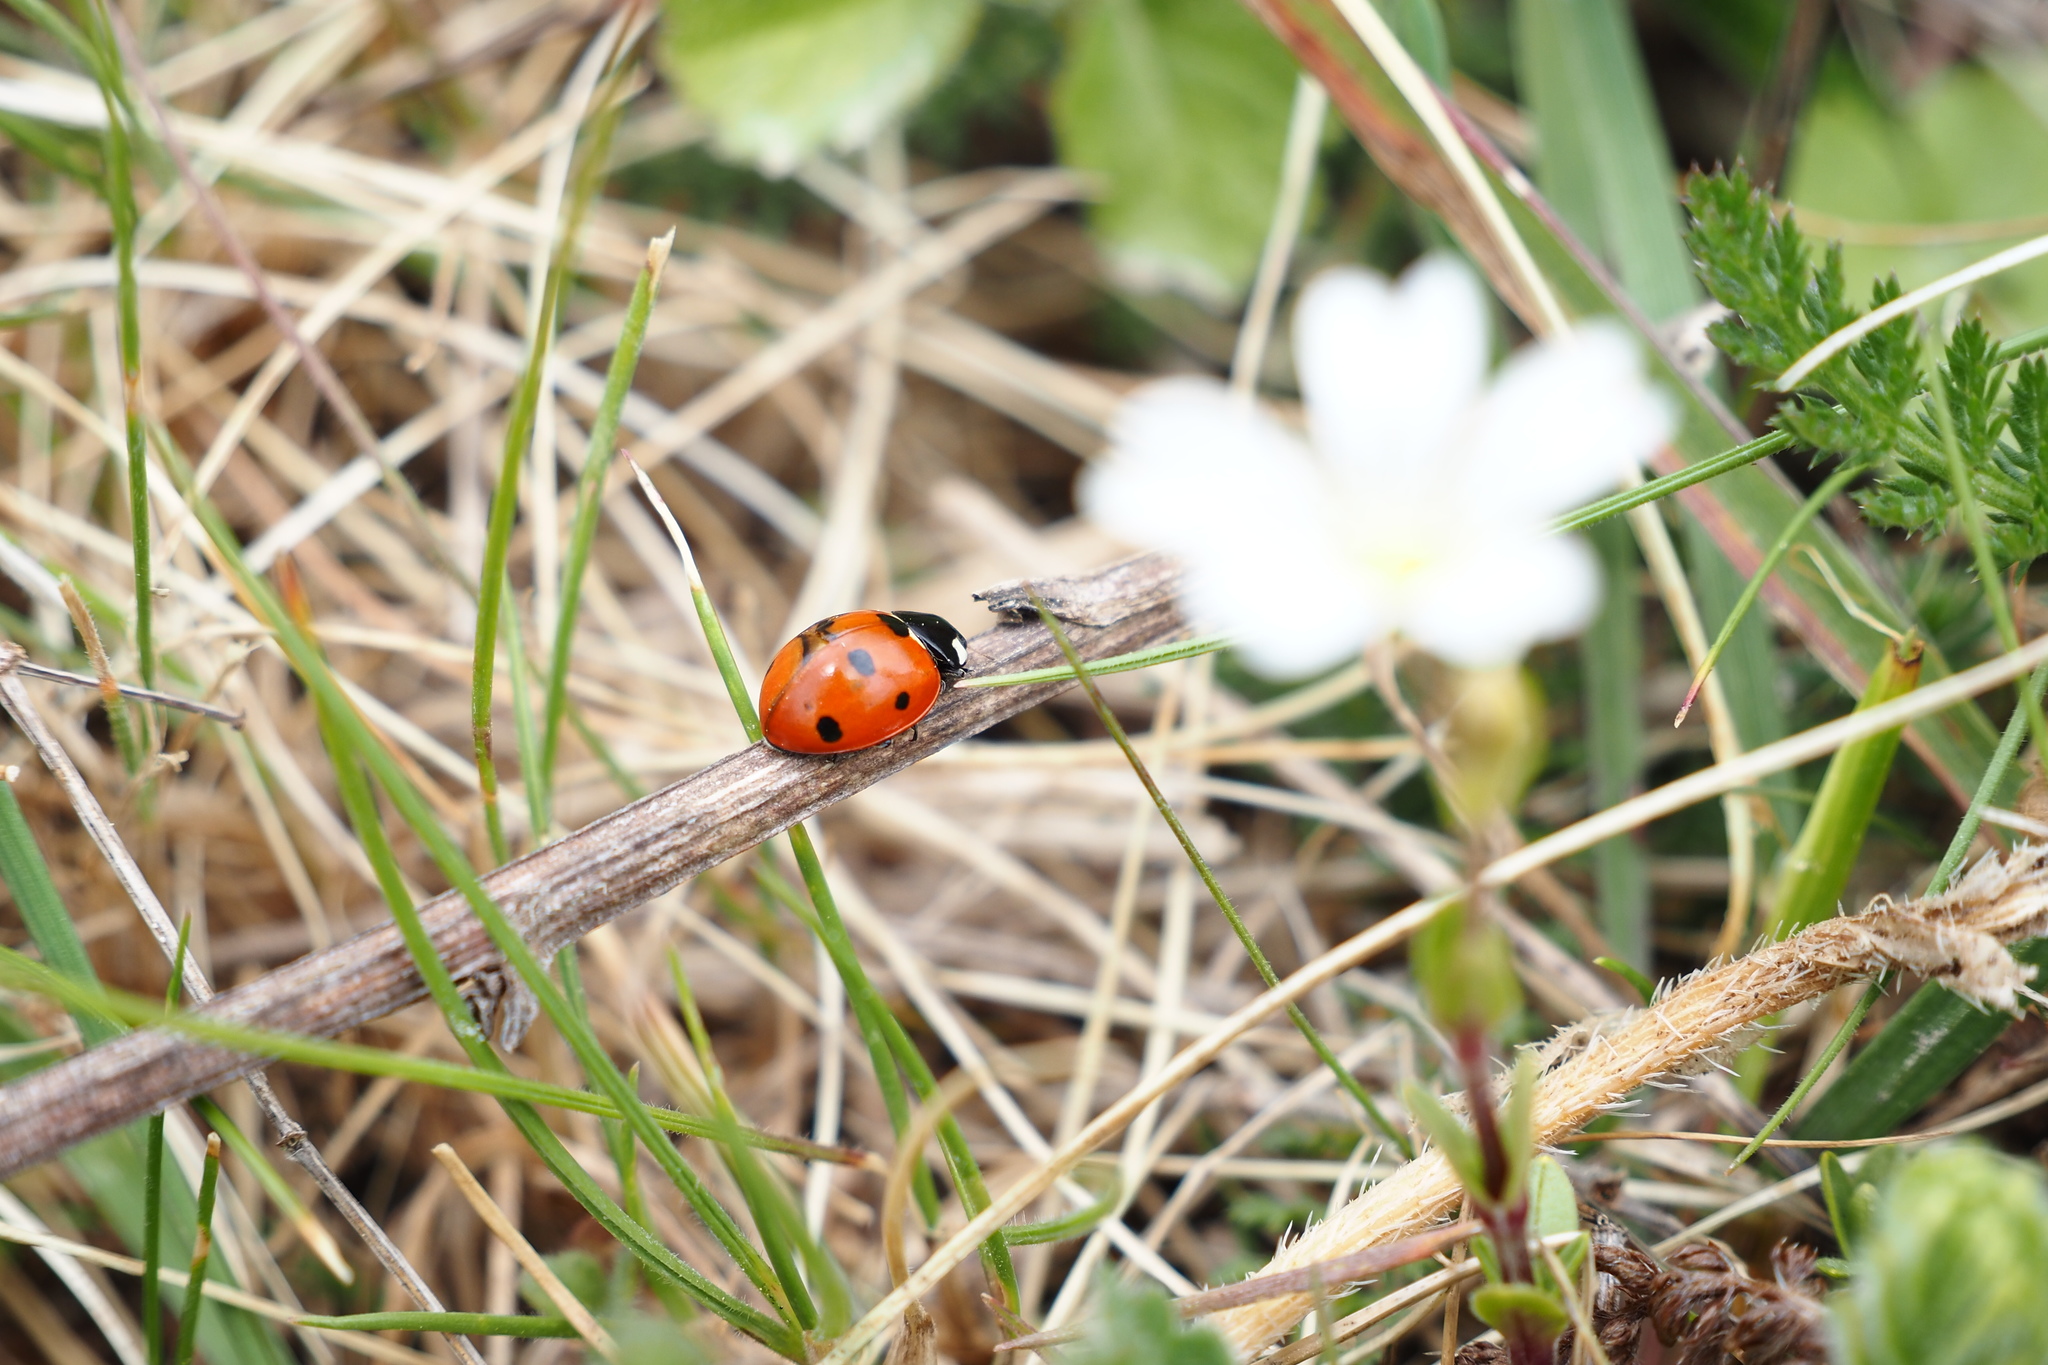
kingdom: Animalia
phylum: Arthropoda
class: Insecta
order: Coleoptera
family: Coccinellidae
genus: Coccinella
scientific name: Coccinella septempunctata
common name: Sevenspotted lady beetle
